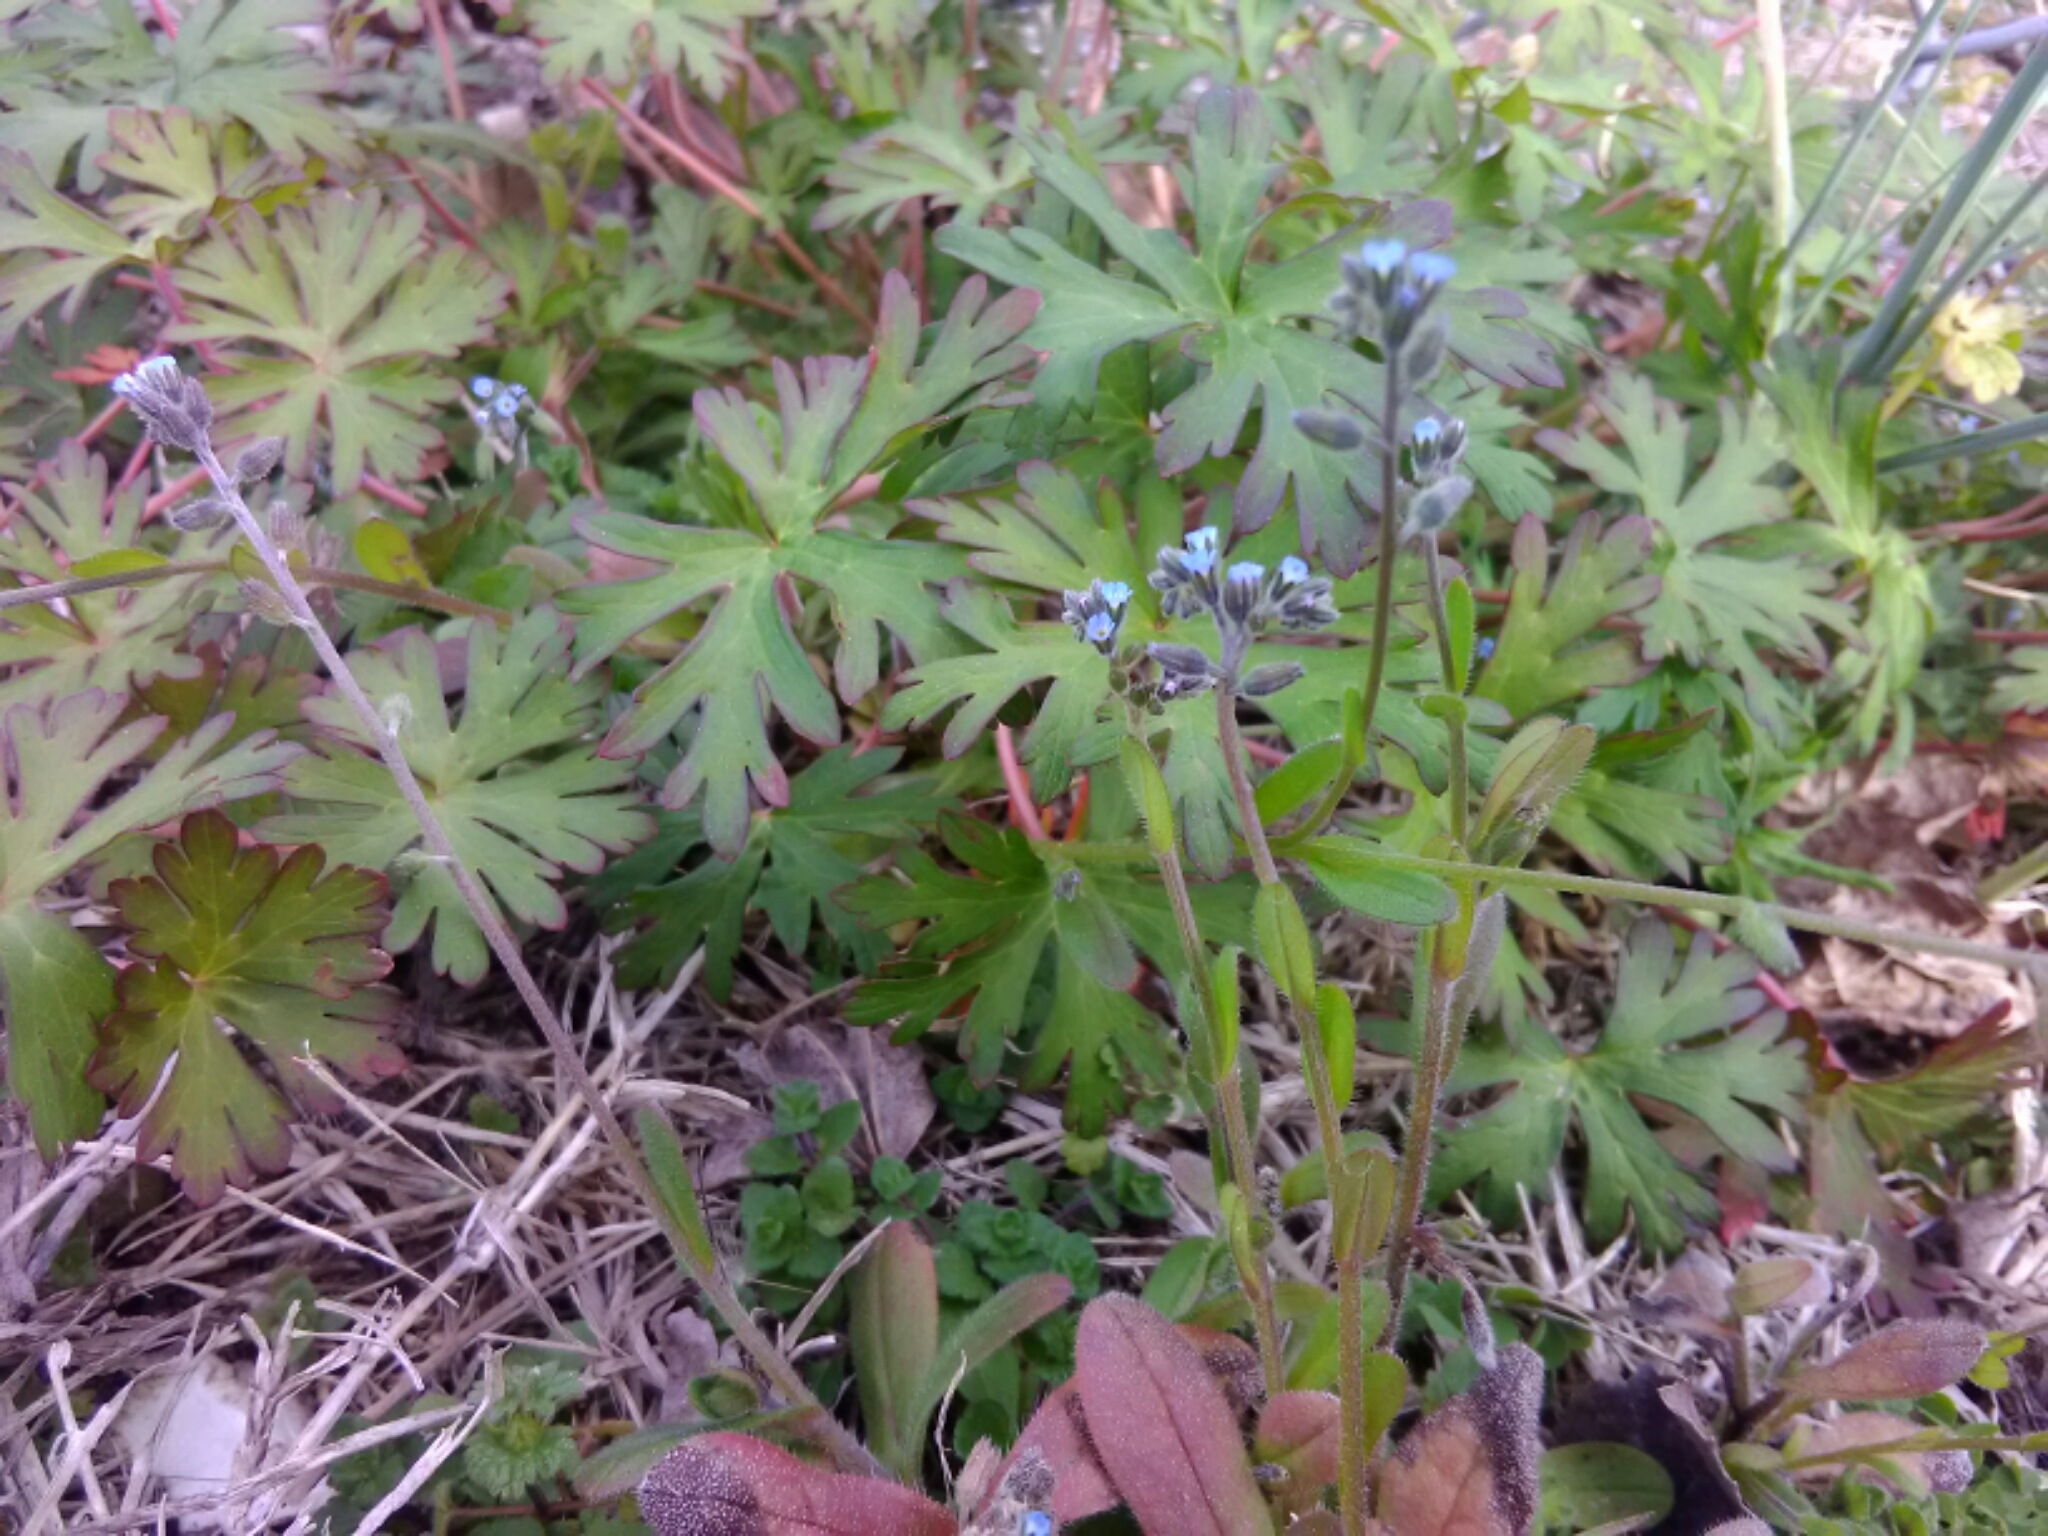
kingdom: Plantae
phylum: Tracheophyta
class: Magnoliopsida
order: Boraginales
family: Boraginaceae
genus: Myosotis
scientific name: Myosotis stricta
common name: Strict forget-me-not
